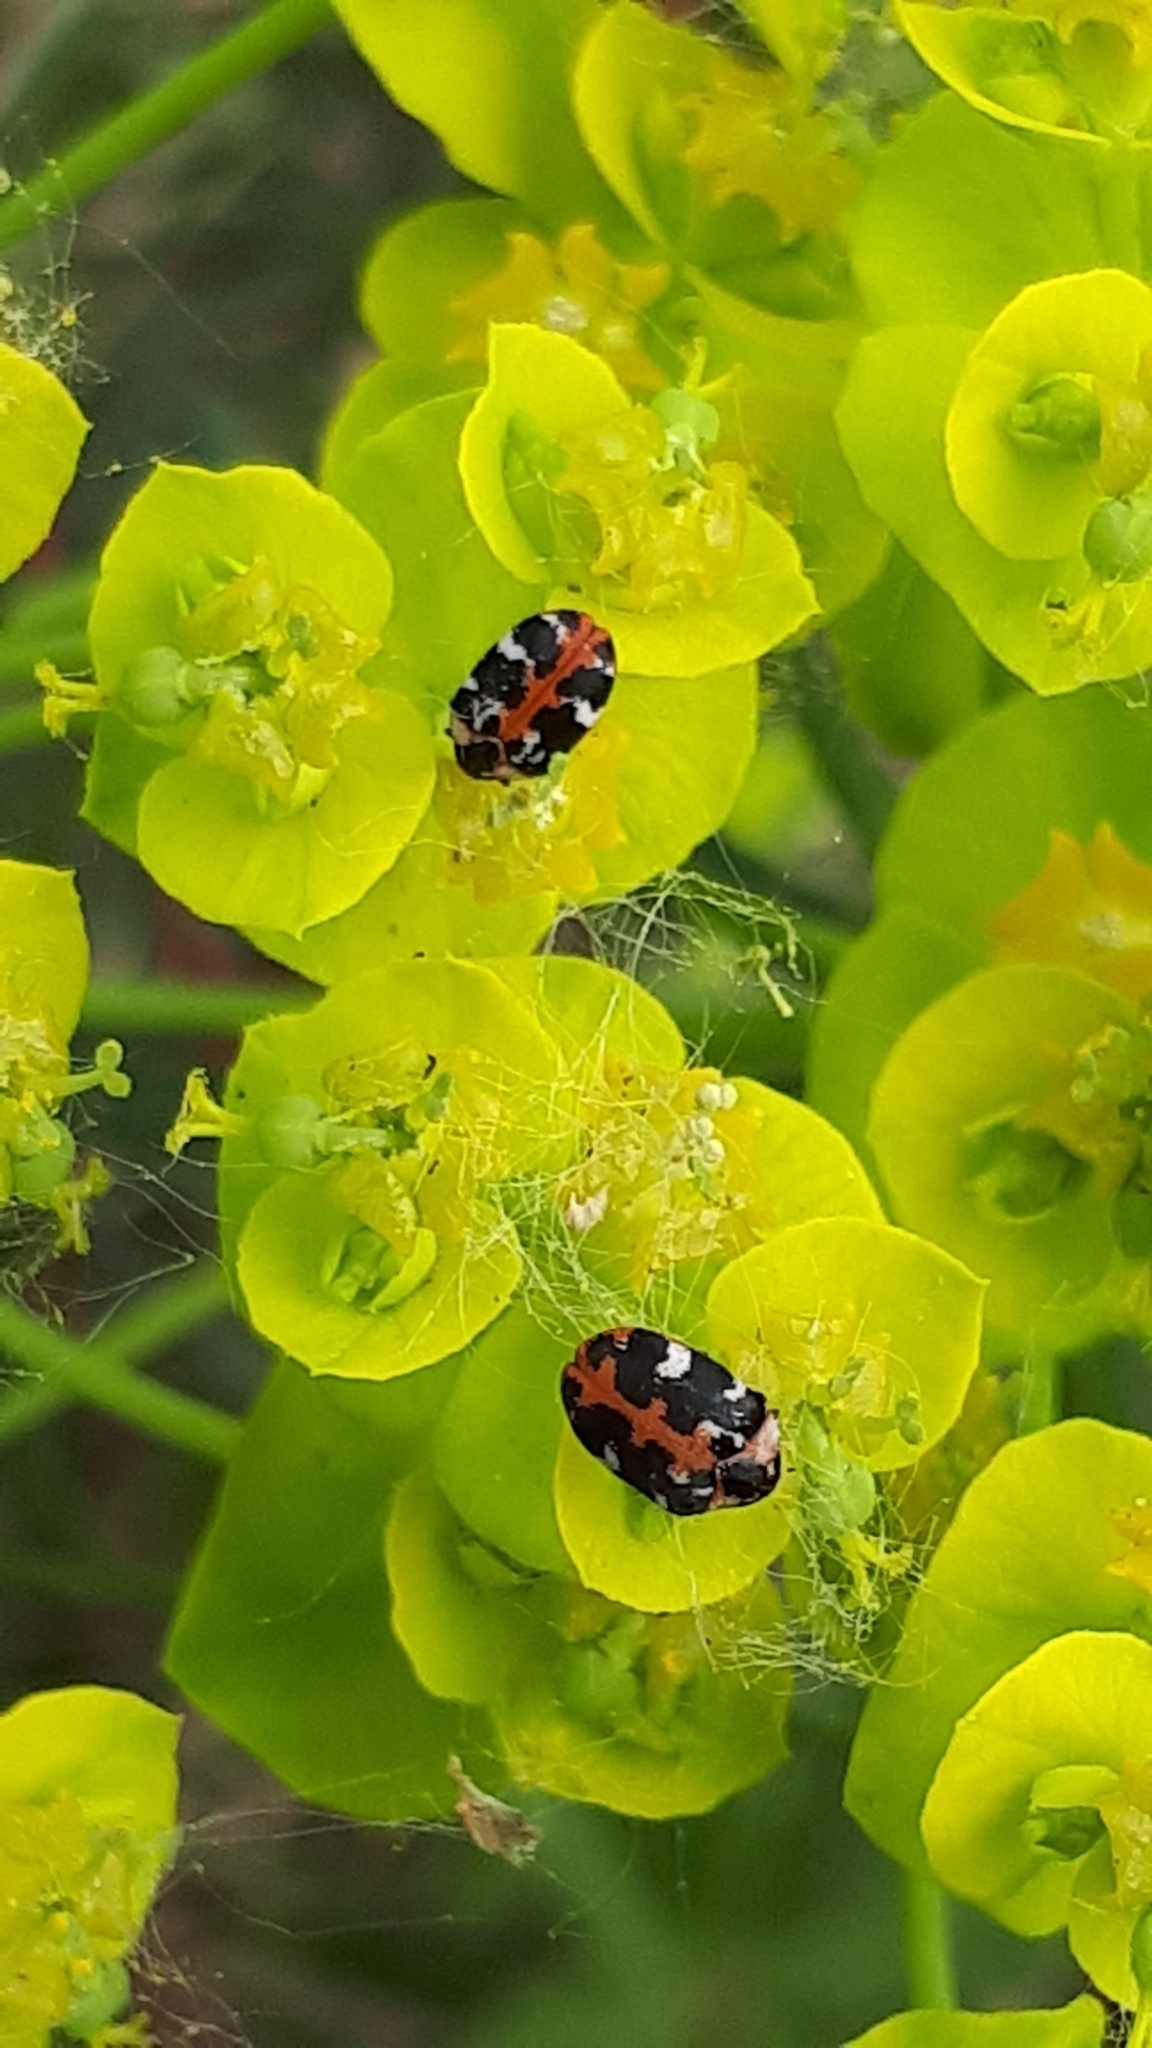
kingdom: Animalia
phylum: Arthropoda
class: Insecta
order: Coleoptera
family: Dermestidae
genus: Anthrenus
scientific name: Anthrenus scrophulariae
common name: Buffalo carpet beetle
